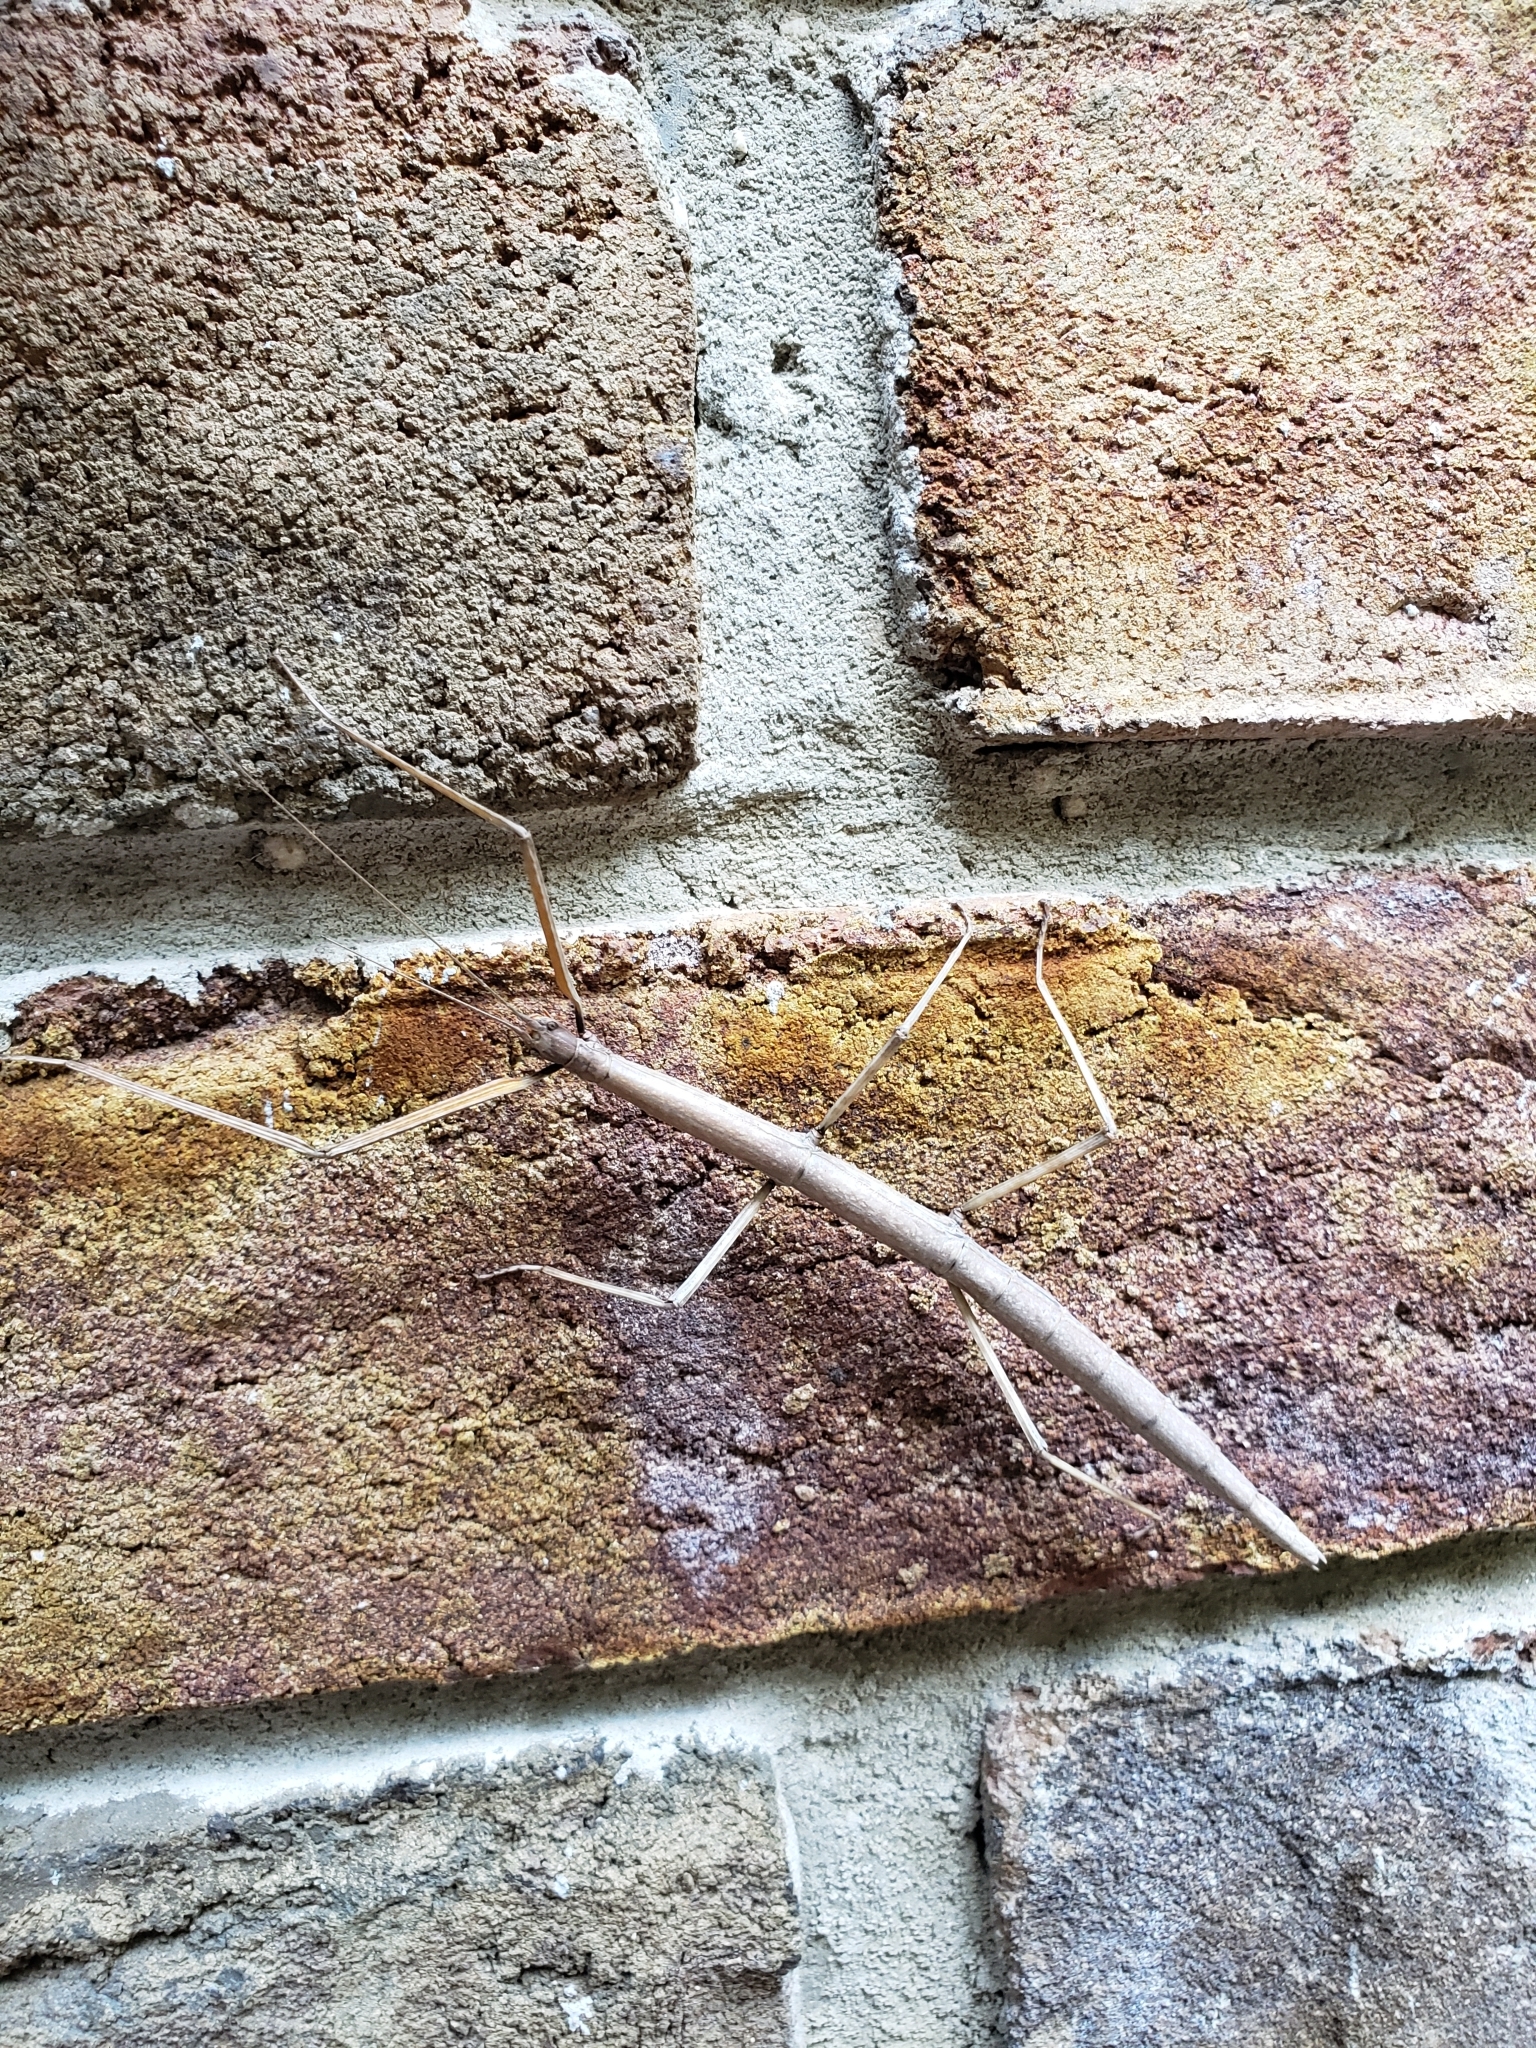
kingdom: Animalia
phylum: Arthropoda
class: Insecta
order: Phasmida
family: Diapheromeridae
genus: Diapheromera
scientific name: Diapheromera femorata
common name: Common american walkingstick
